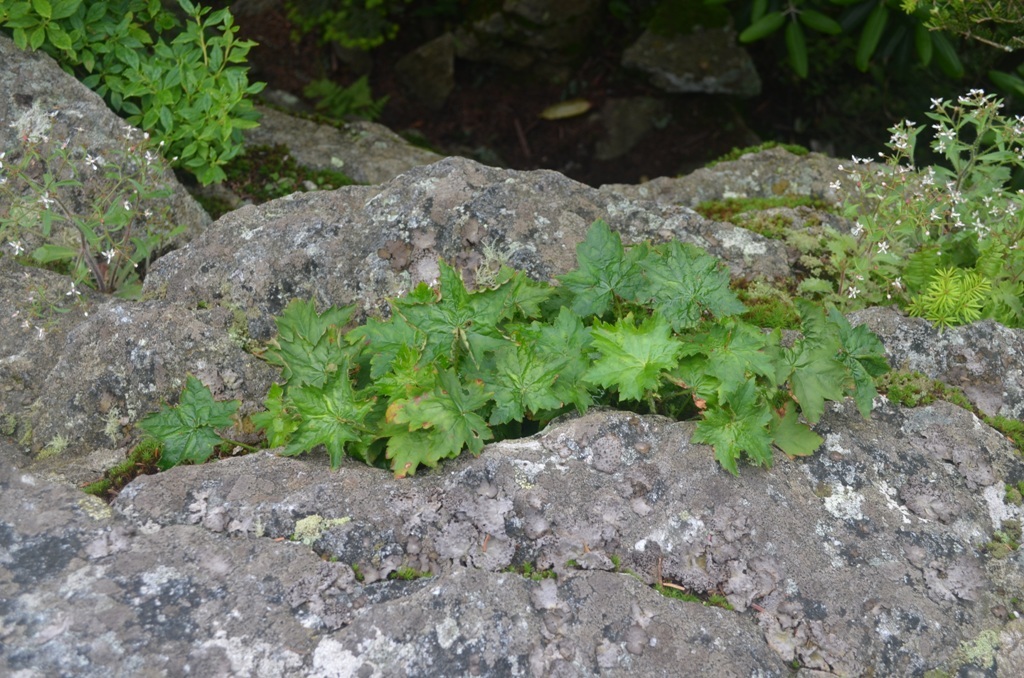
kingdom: Plantae
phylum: Tracheophyta
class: Magnoliopsida
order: Saxifragales
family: Saxifragaceae
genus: Heuchera
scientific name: Heuchera villosa
